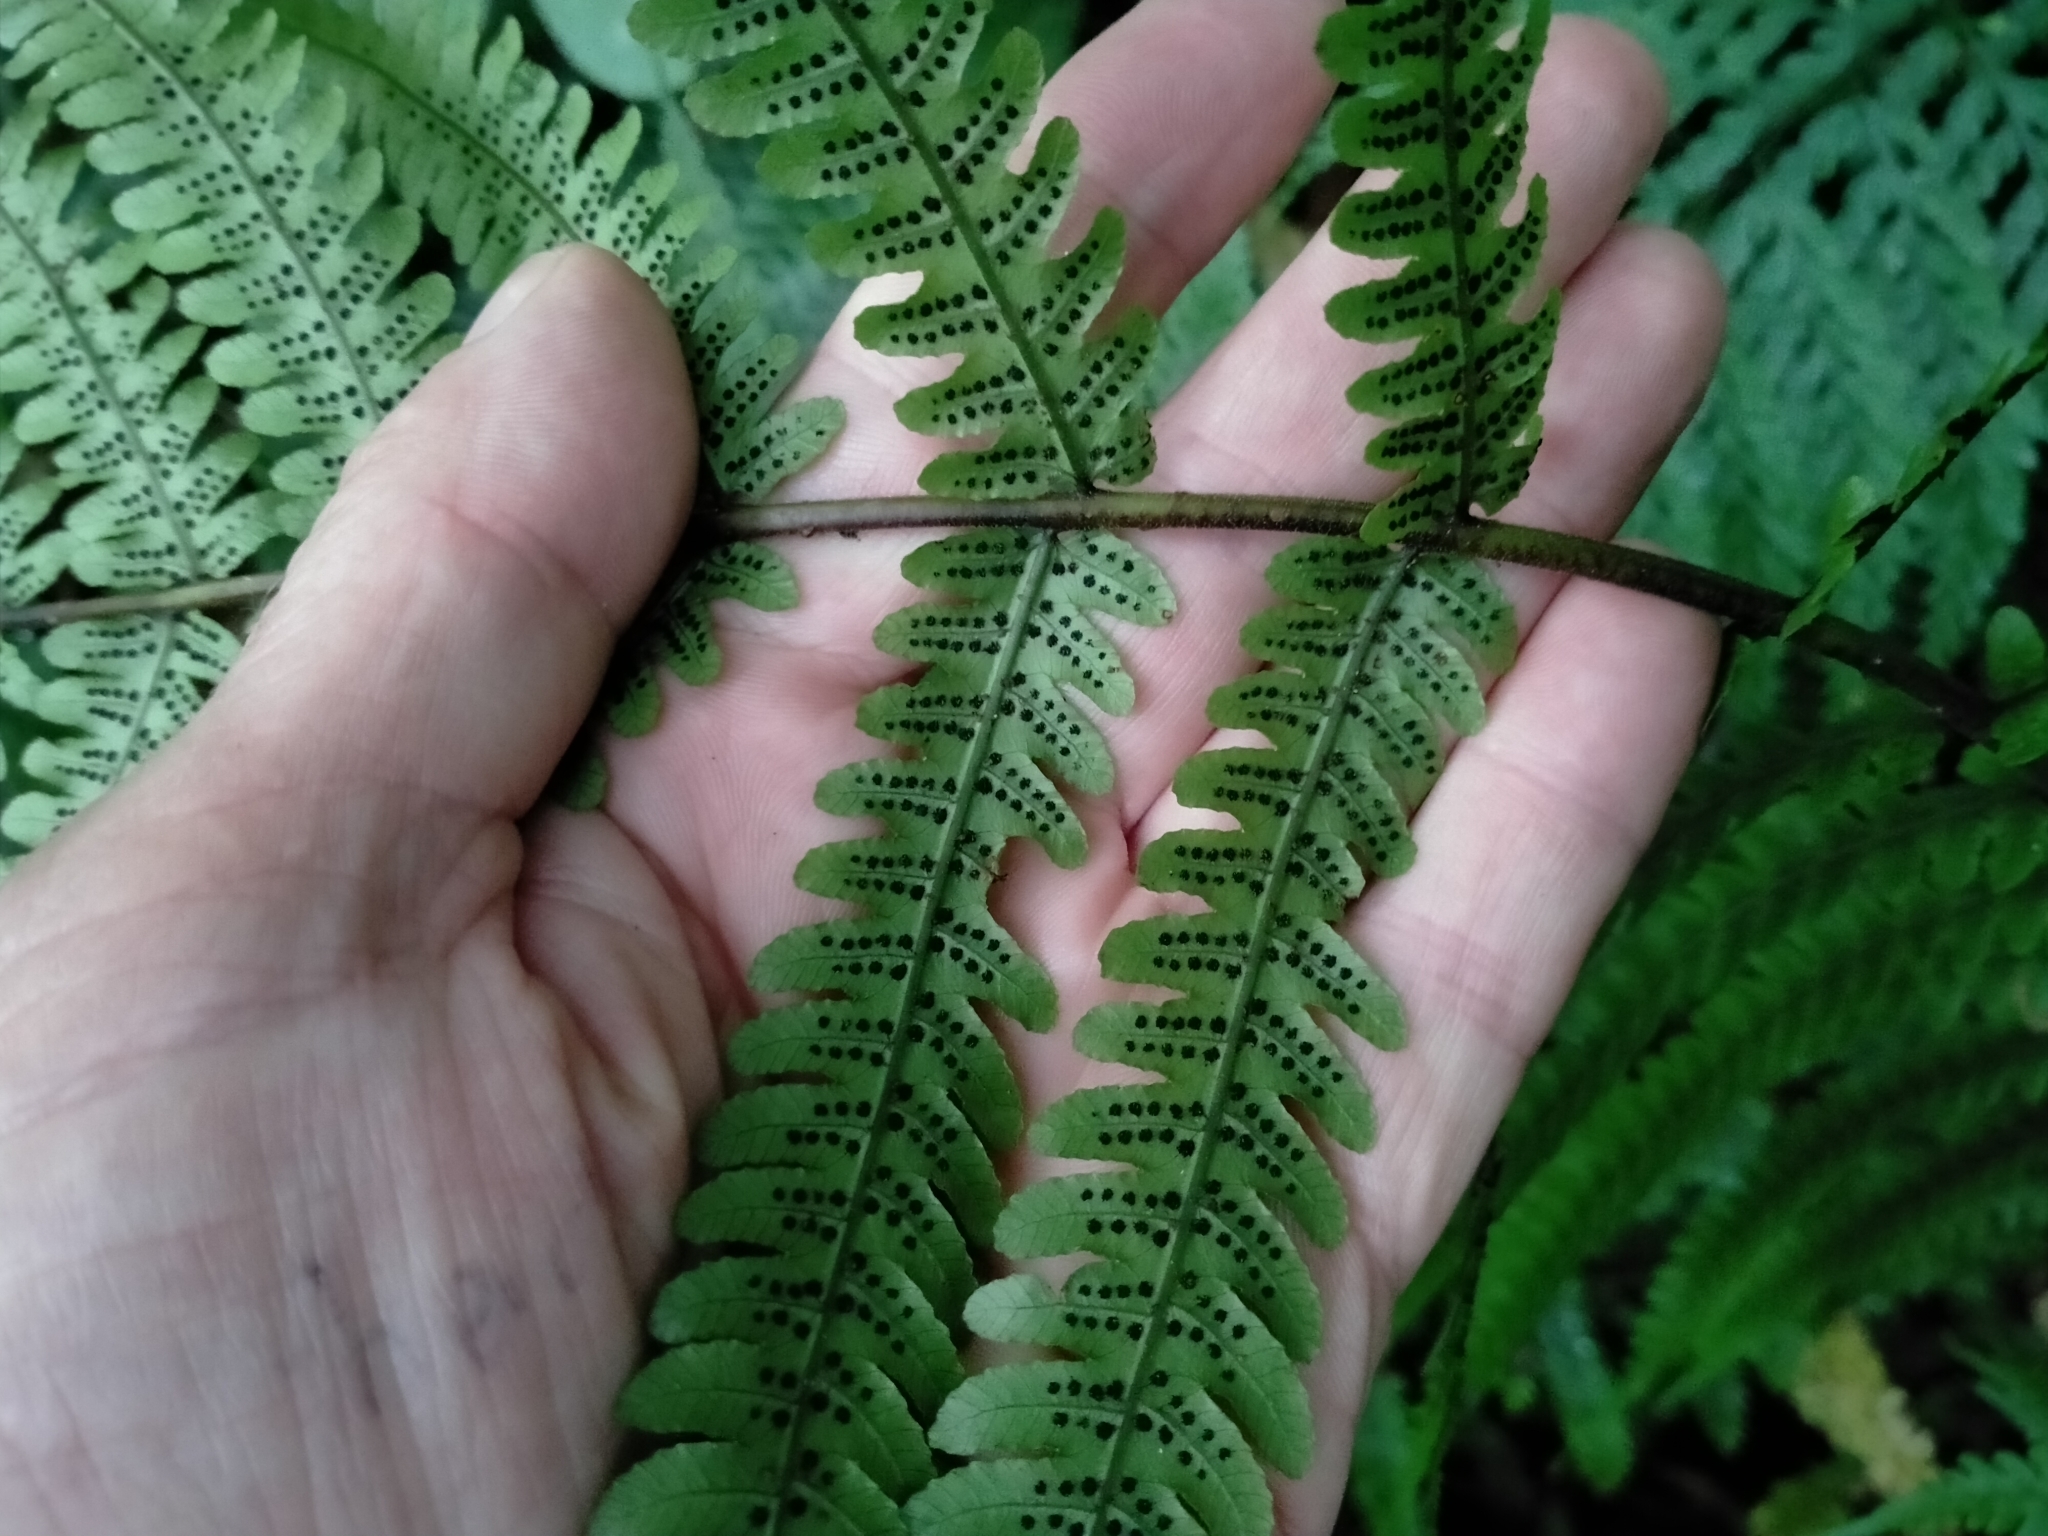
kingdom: Plantae
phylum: Tracheophyta
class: Polypodiopsida
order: Polypodiales
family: Thelypteridaceae
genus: Pakau
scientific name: Pakau pennigera
